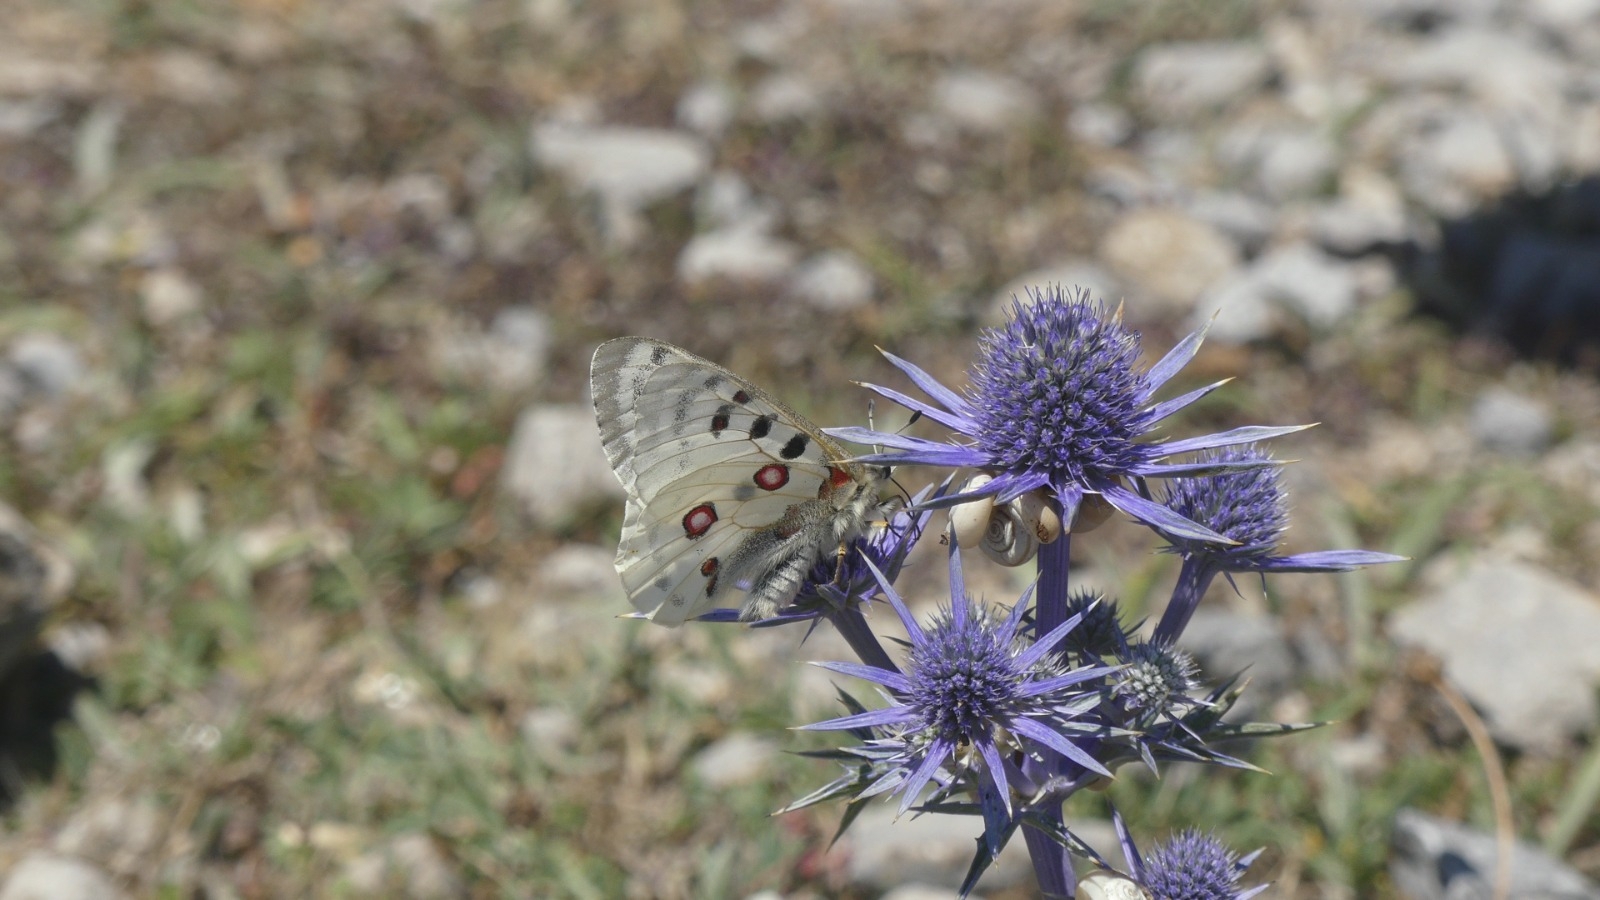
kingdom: Animalia
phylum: Arthropoda
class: Insecta
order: Lepidoptera
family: Papilionidae
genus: Parnassius
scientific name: Parnassius apollo
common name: Apollo
